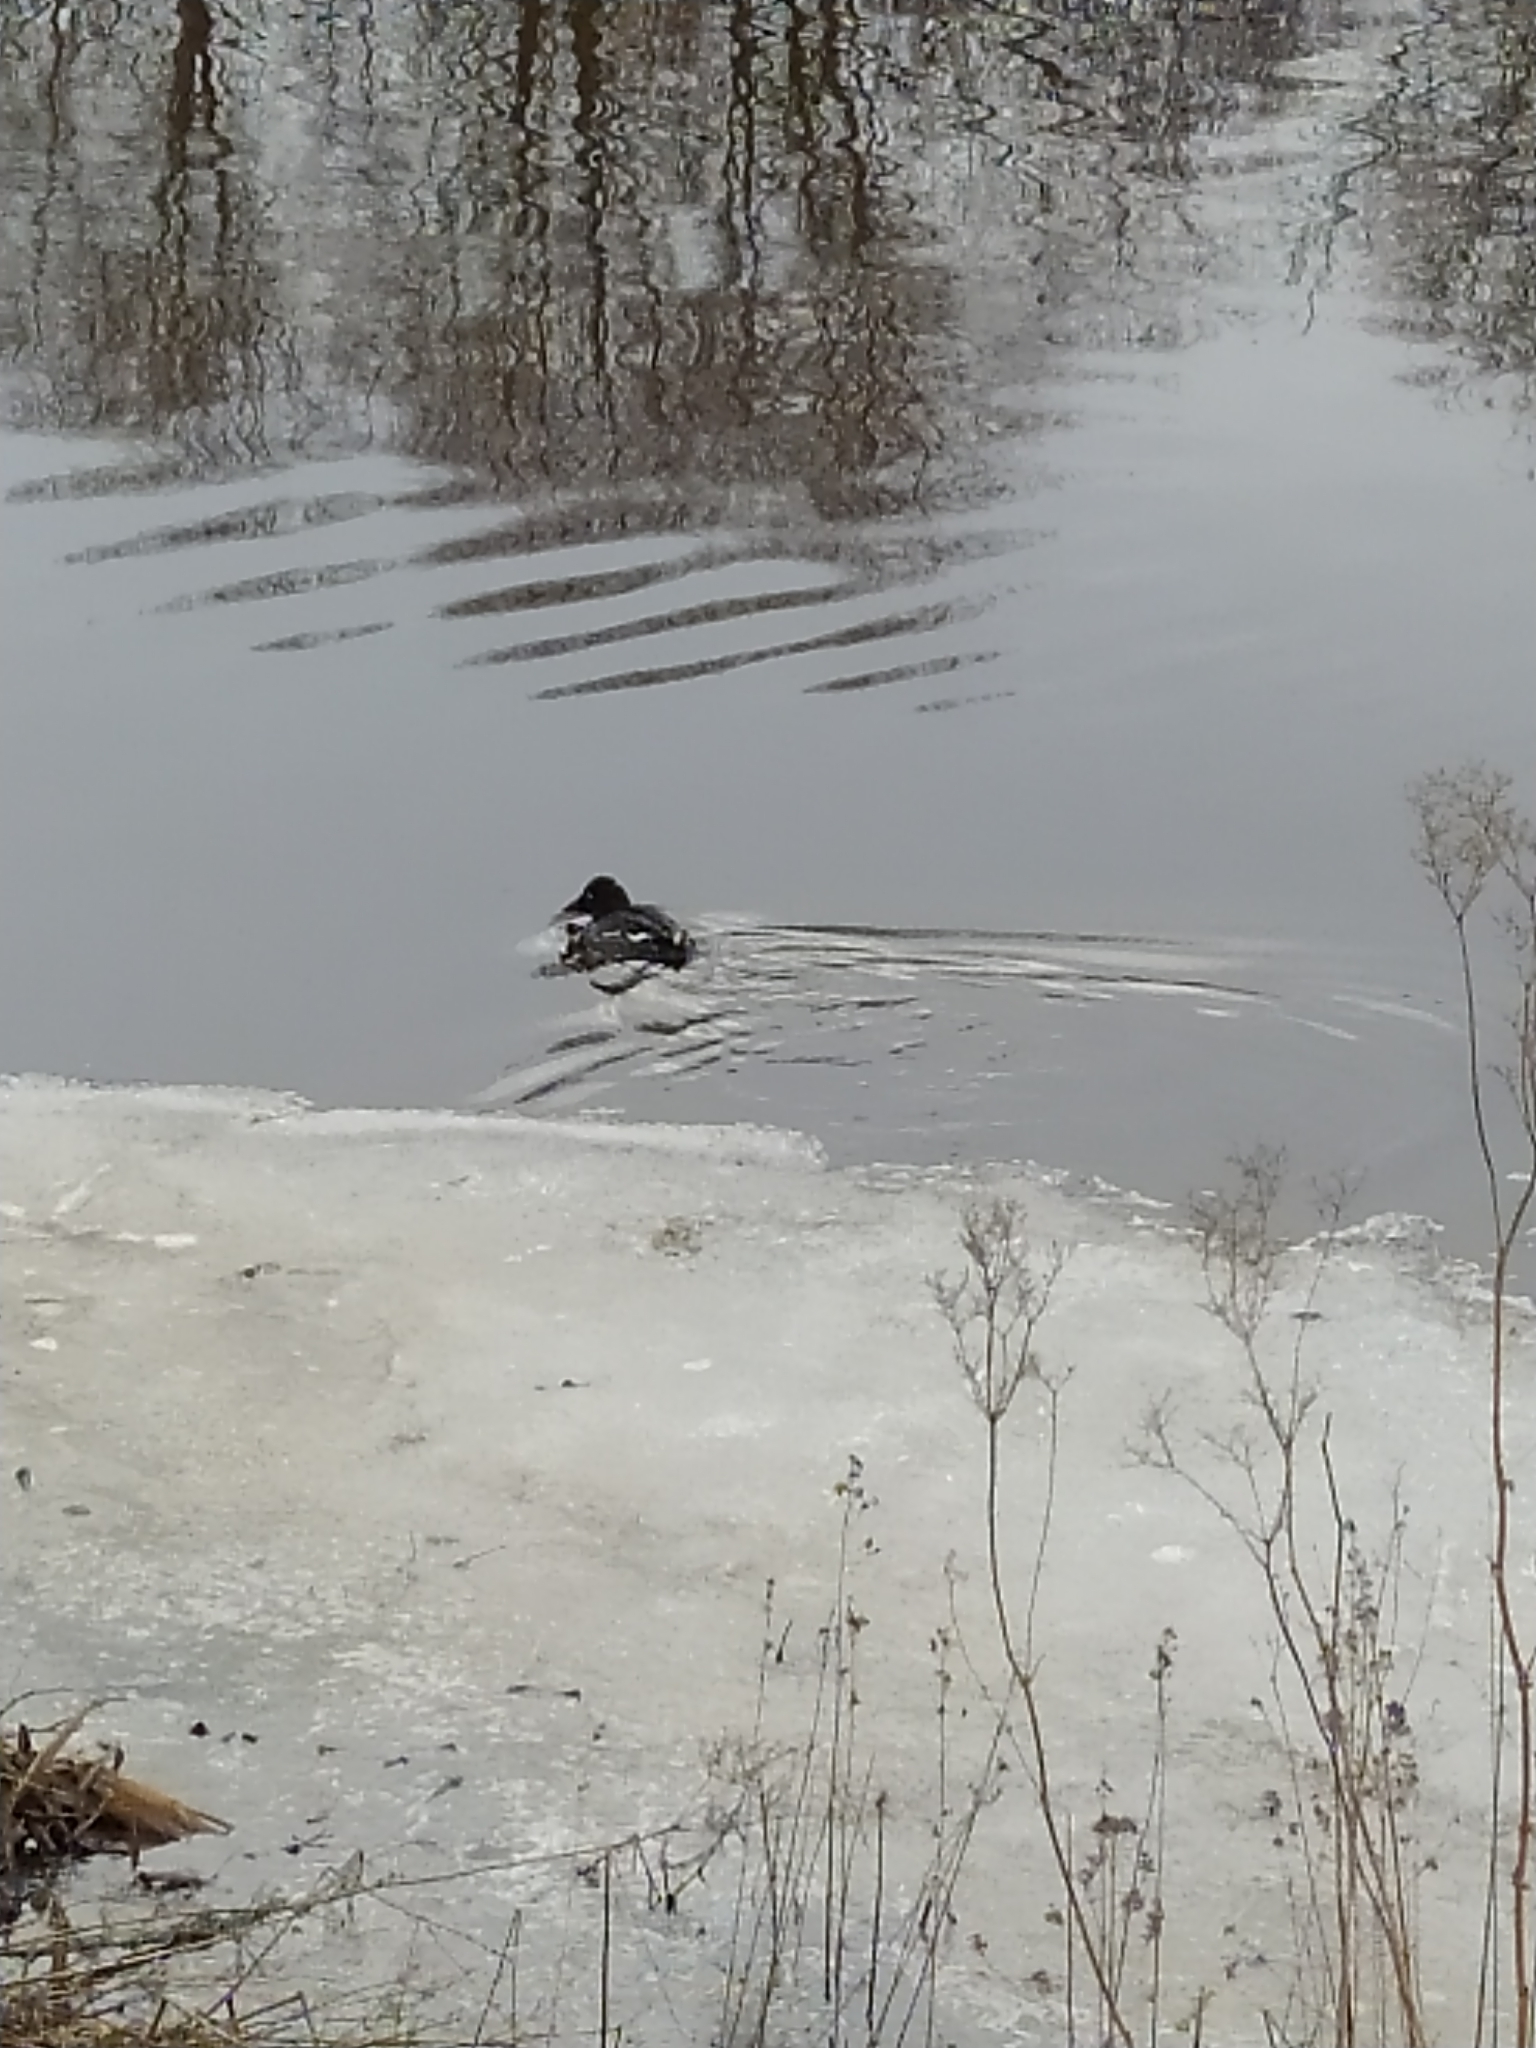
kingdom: Animalia
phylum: Chordata
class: Aves
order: Anseriformes
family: Anatidae
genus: Bucephala
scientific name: Bucephala clangula
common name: Common goldeneye
